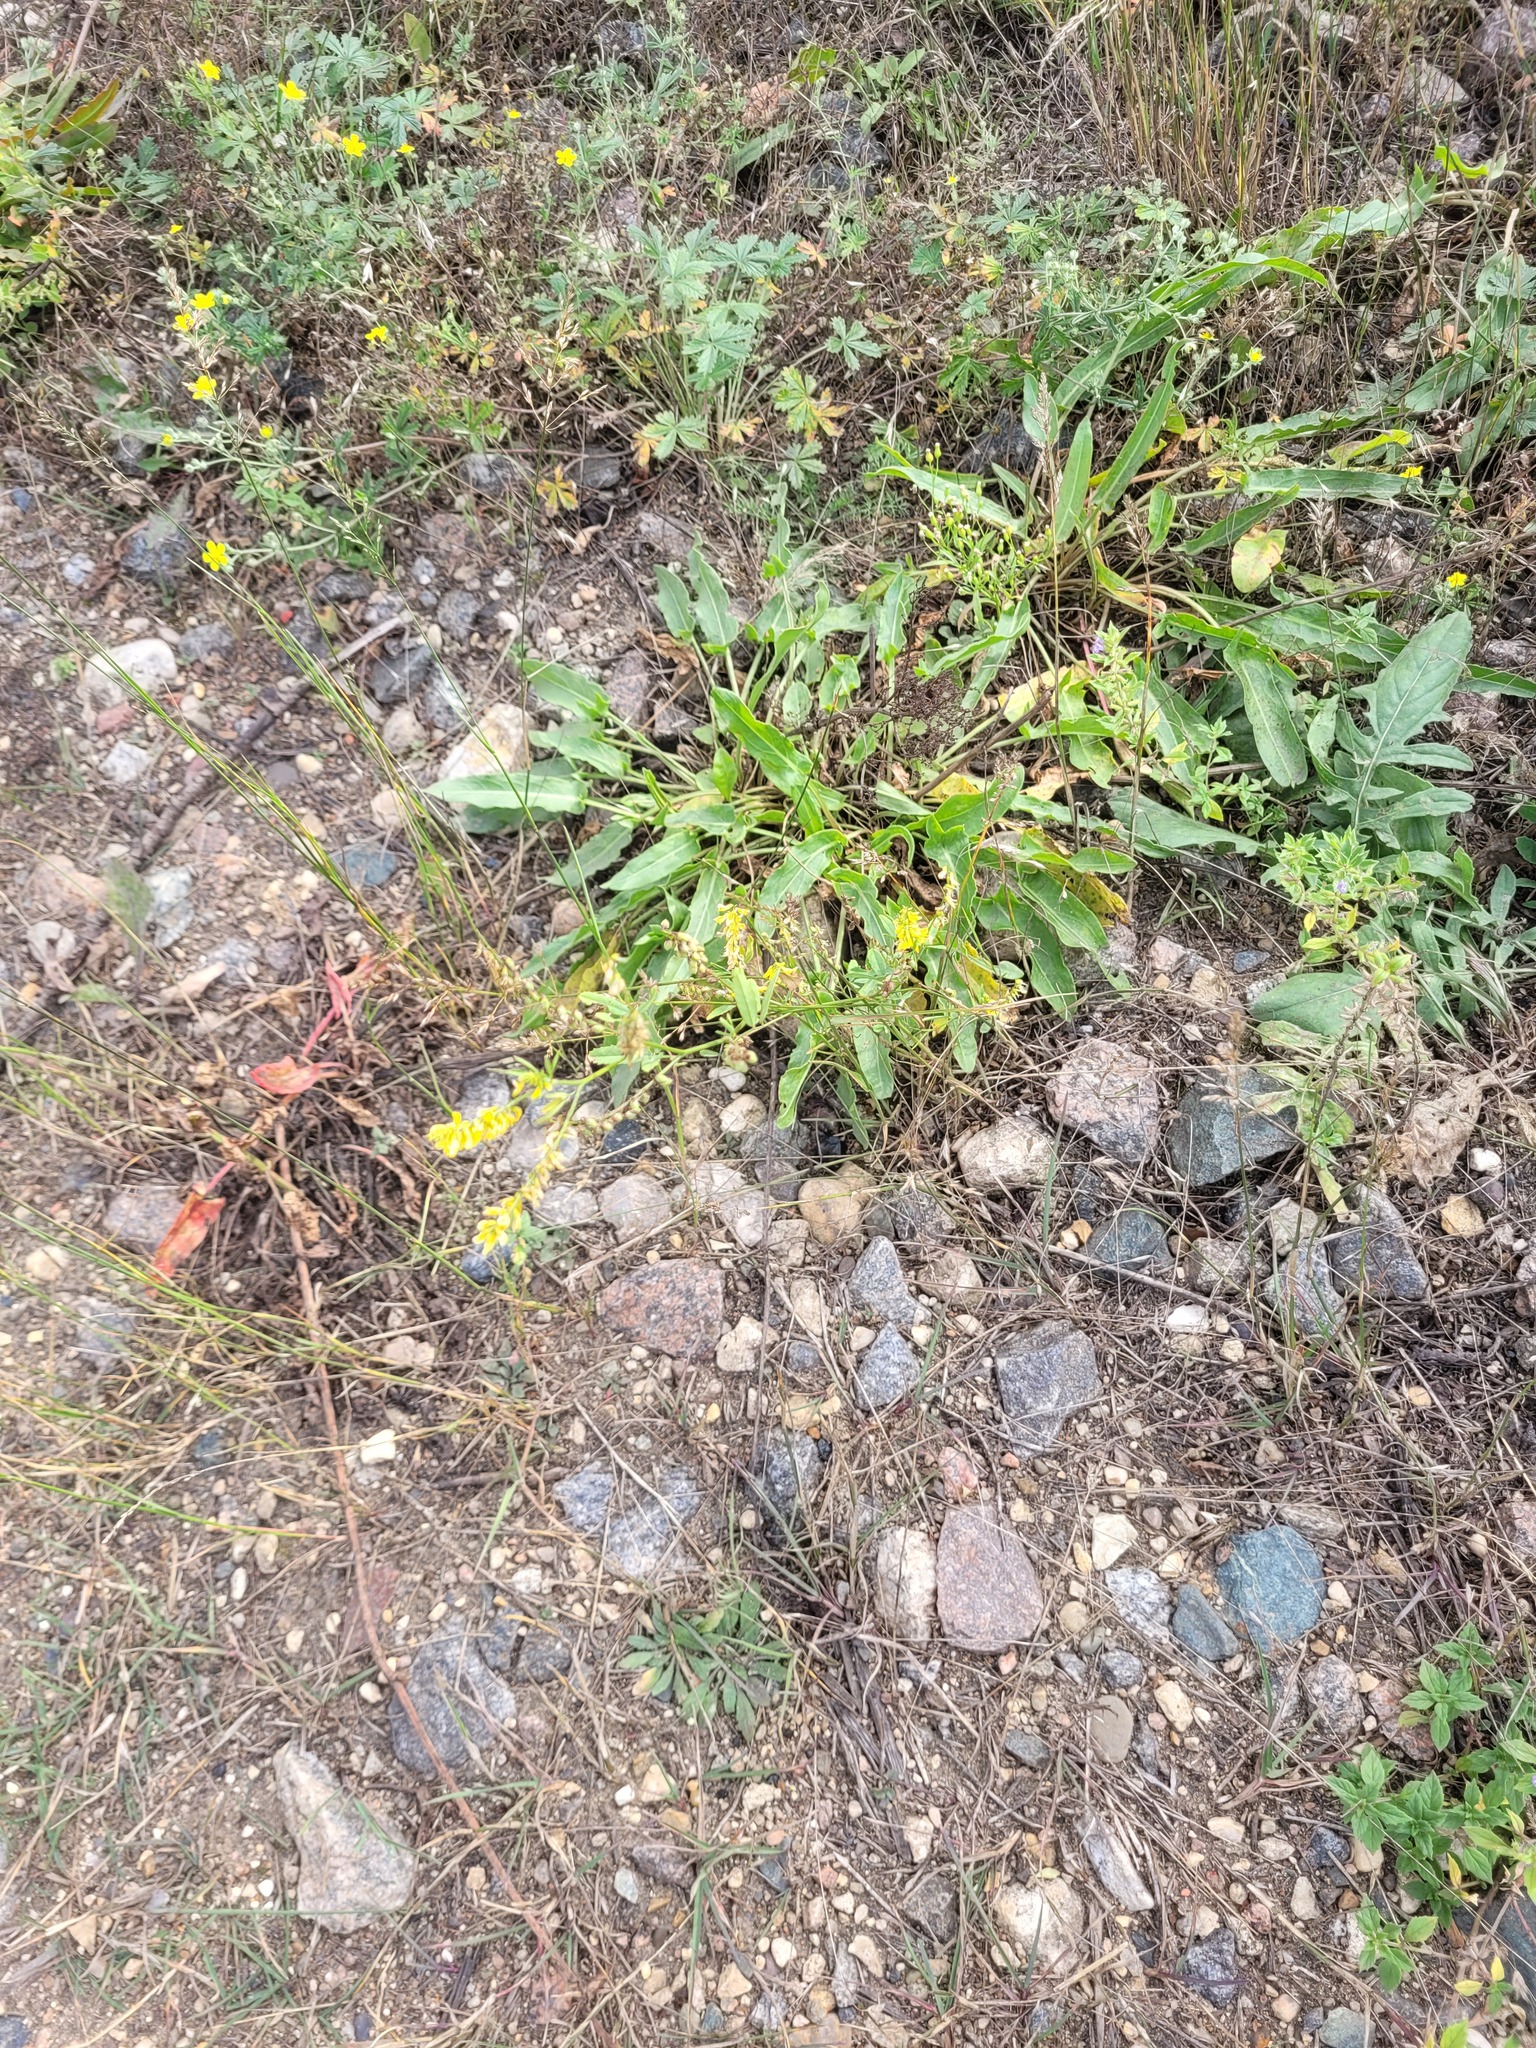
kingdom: Plantae
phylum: Tracheophyta
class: Magnoliopsida
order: Fabales
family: Fabaceae
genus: Melilotus
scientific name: Melilotus officinalis
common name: Sweetclover
